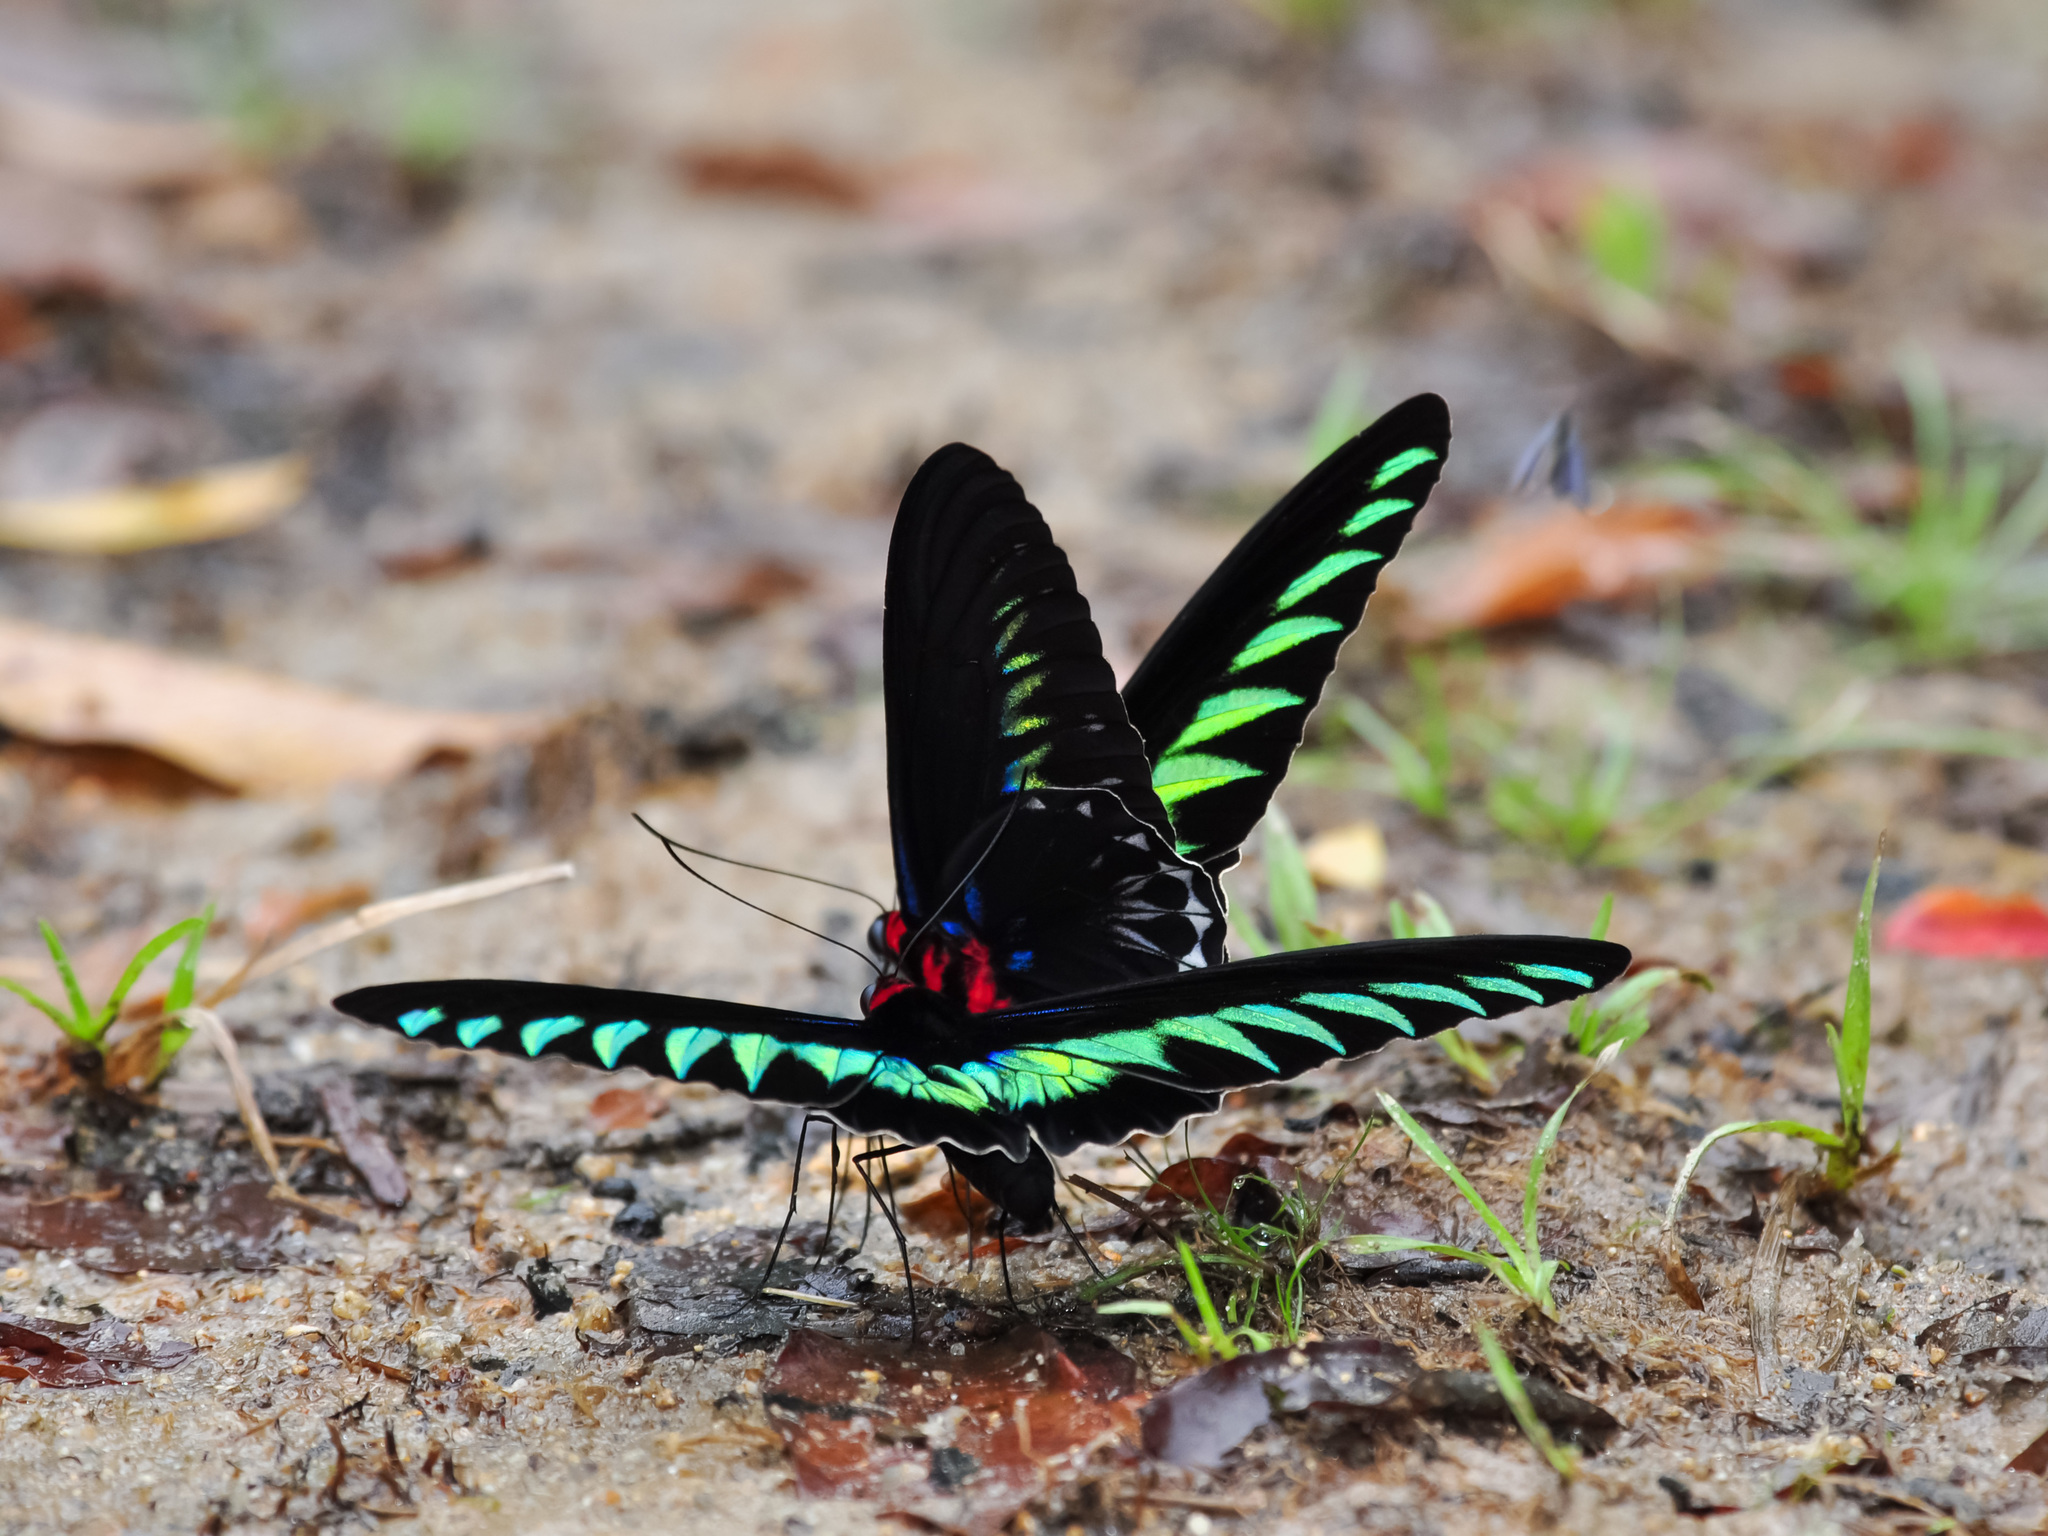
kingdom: Animalia
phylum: Arthropoda
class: Insecta
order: Lepidoptera
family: Papilionidae
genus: Trogonoptera
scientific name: Trogonoptera brookiana
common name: Raja brooke's birdwing
